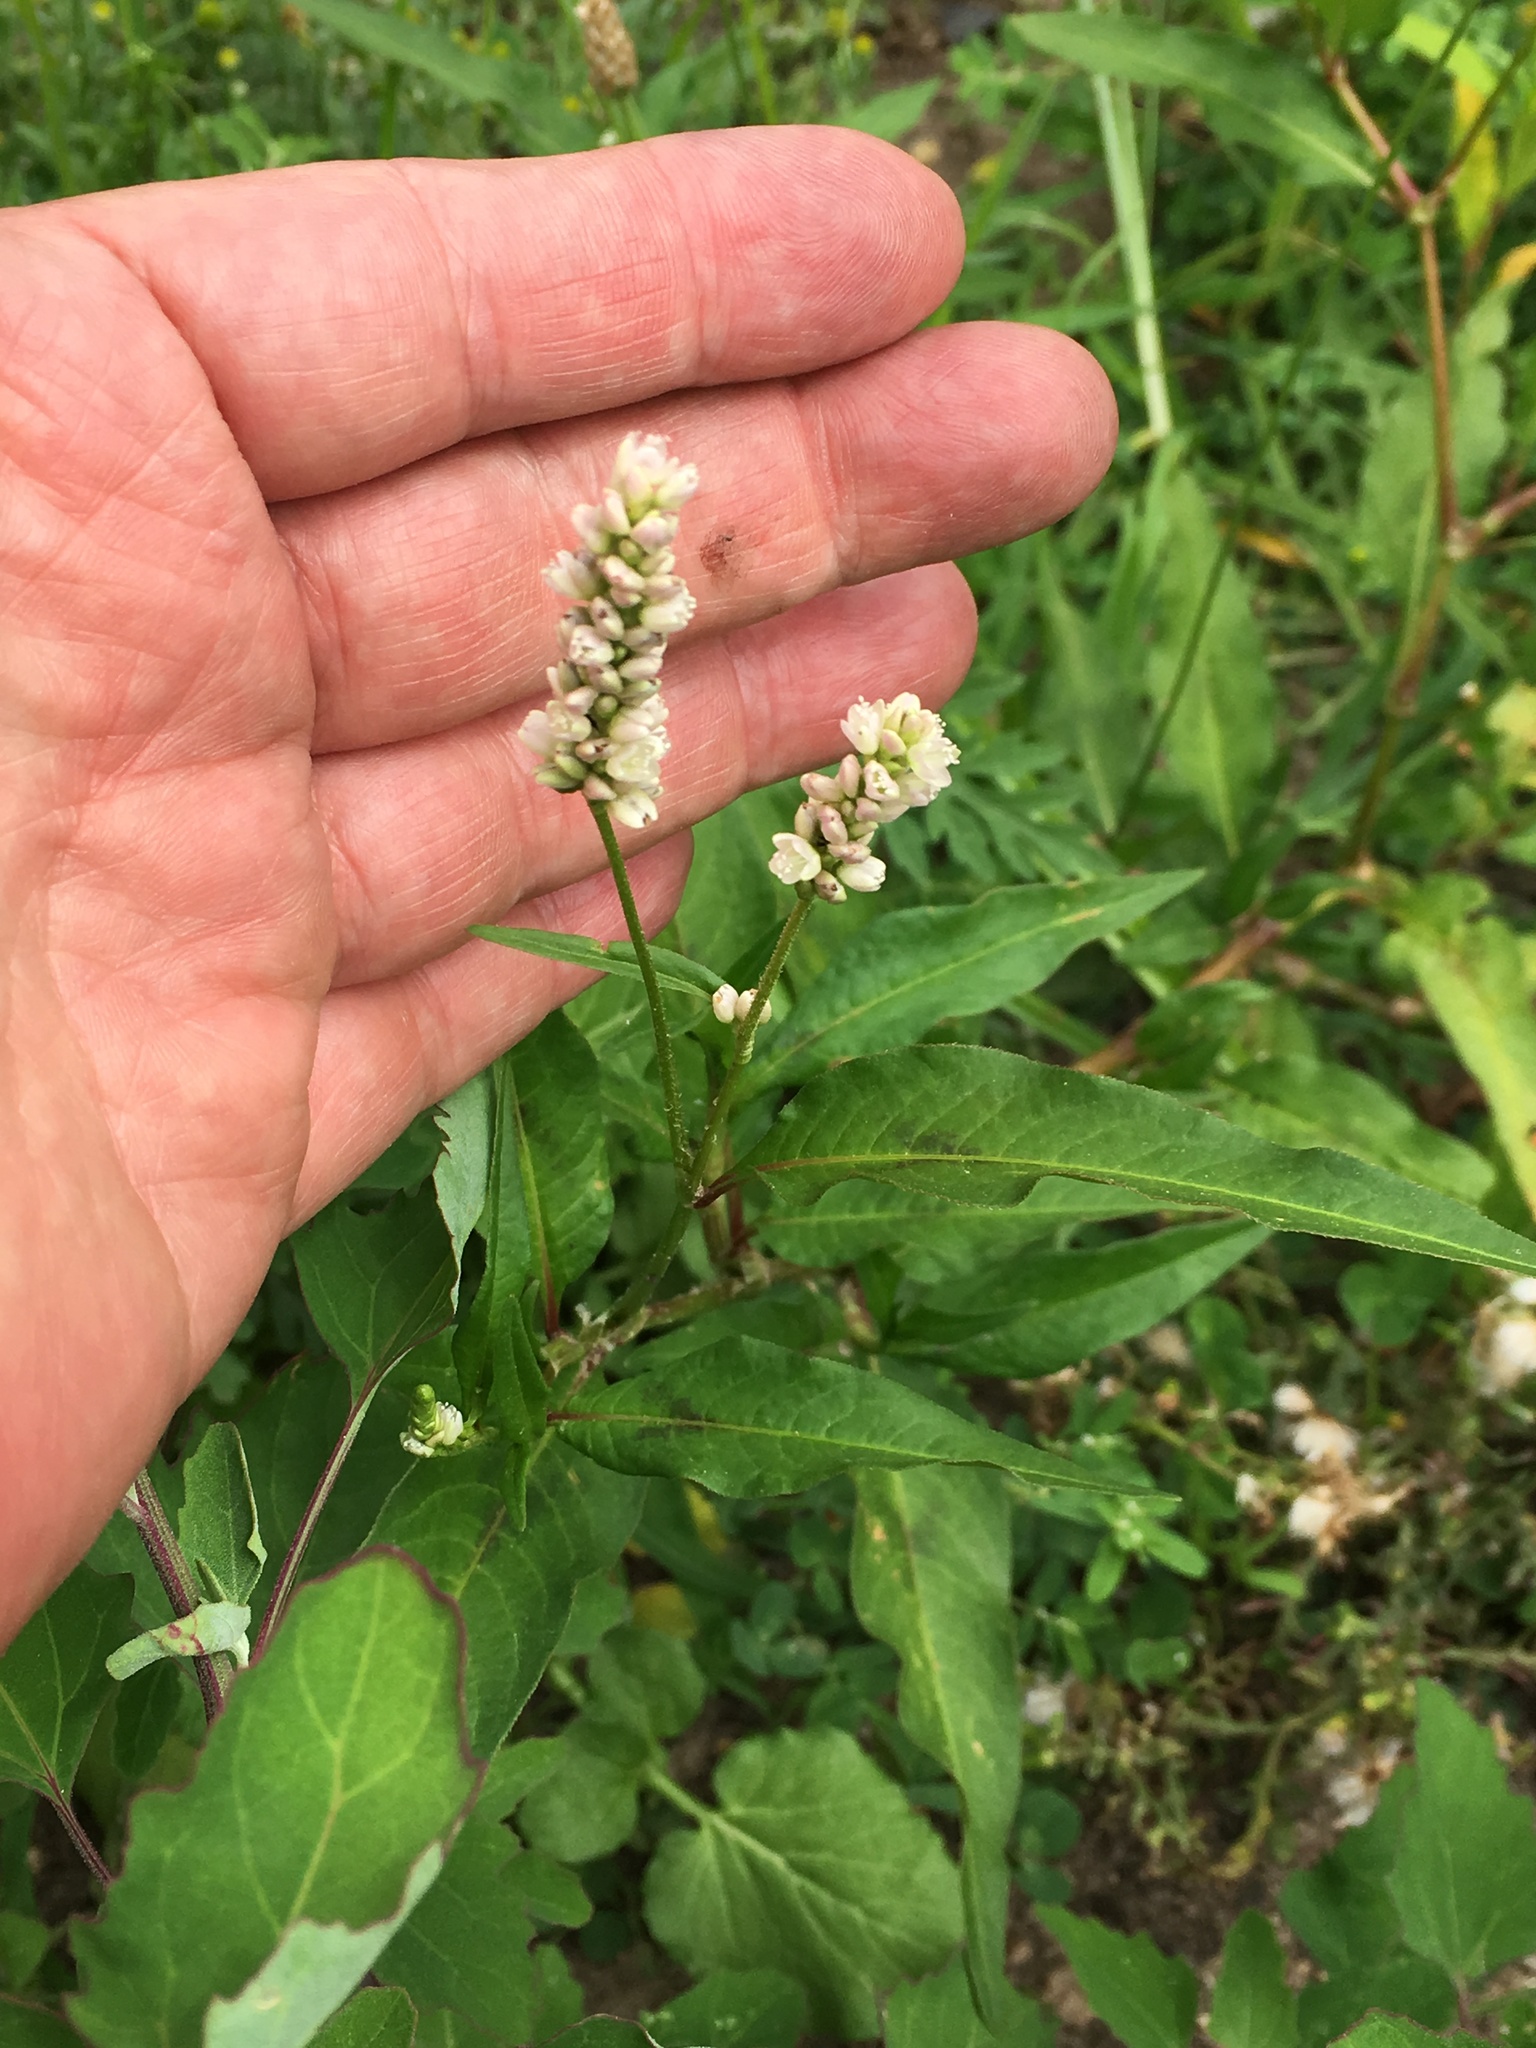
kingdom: Plantae
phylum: Tracheophyta
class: Magnoliopsida
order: Caryophyllales
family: Polygonaceae
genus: Persicaria
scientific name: Persicaria pensylvanica
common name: Pinkweed
